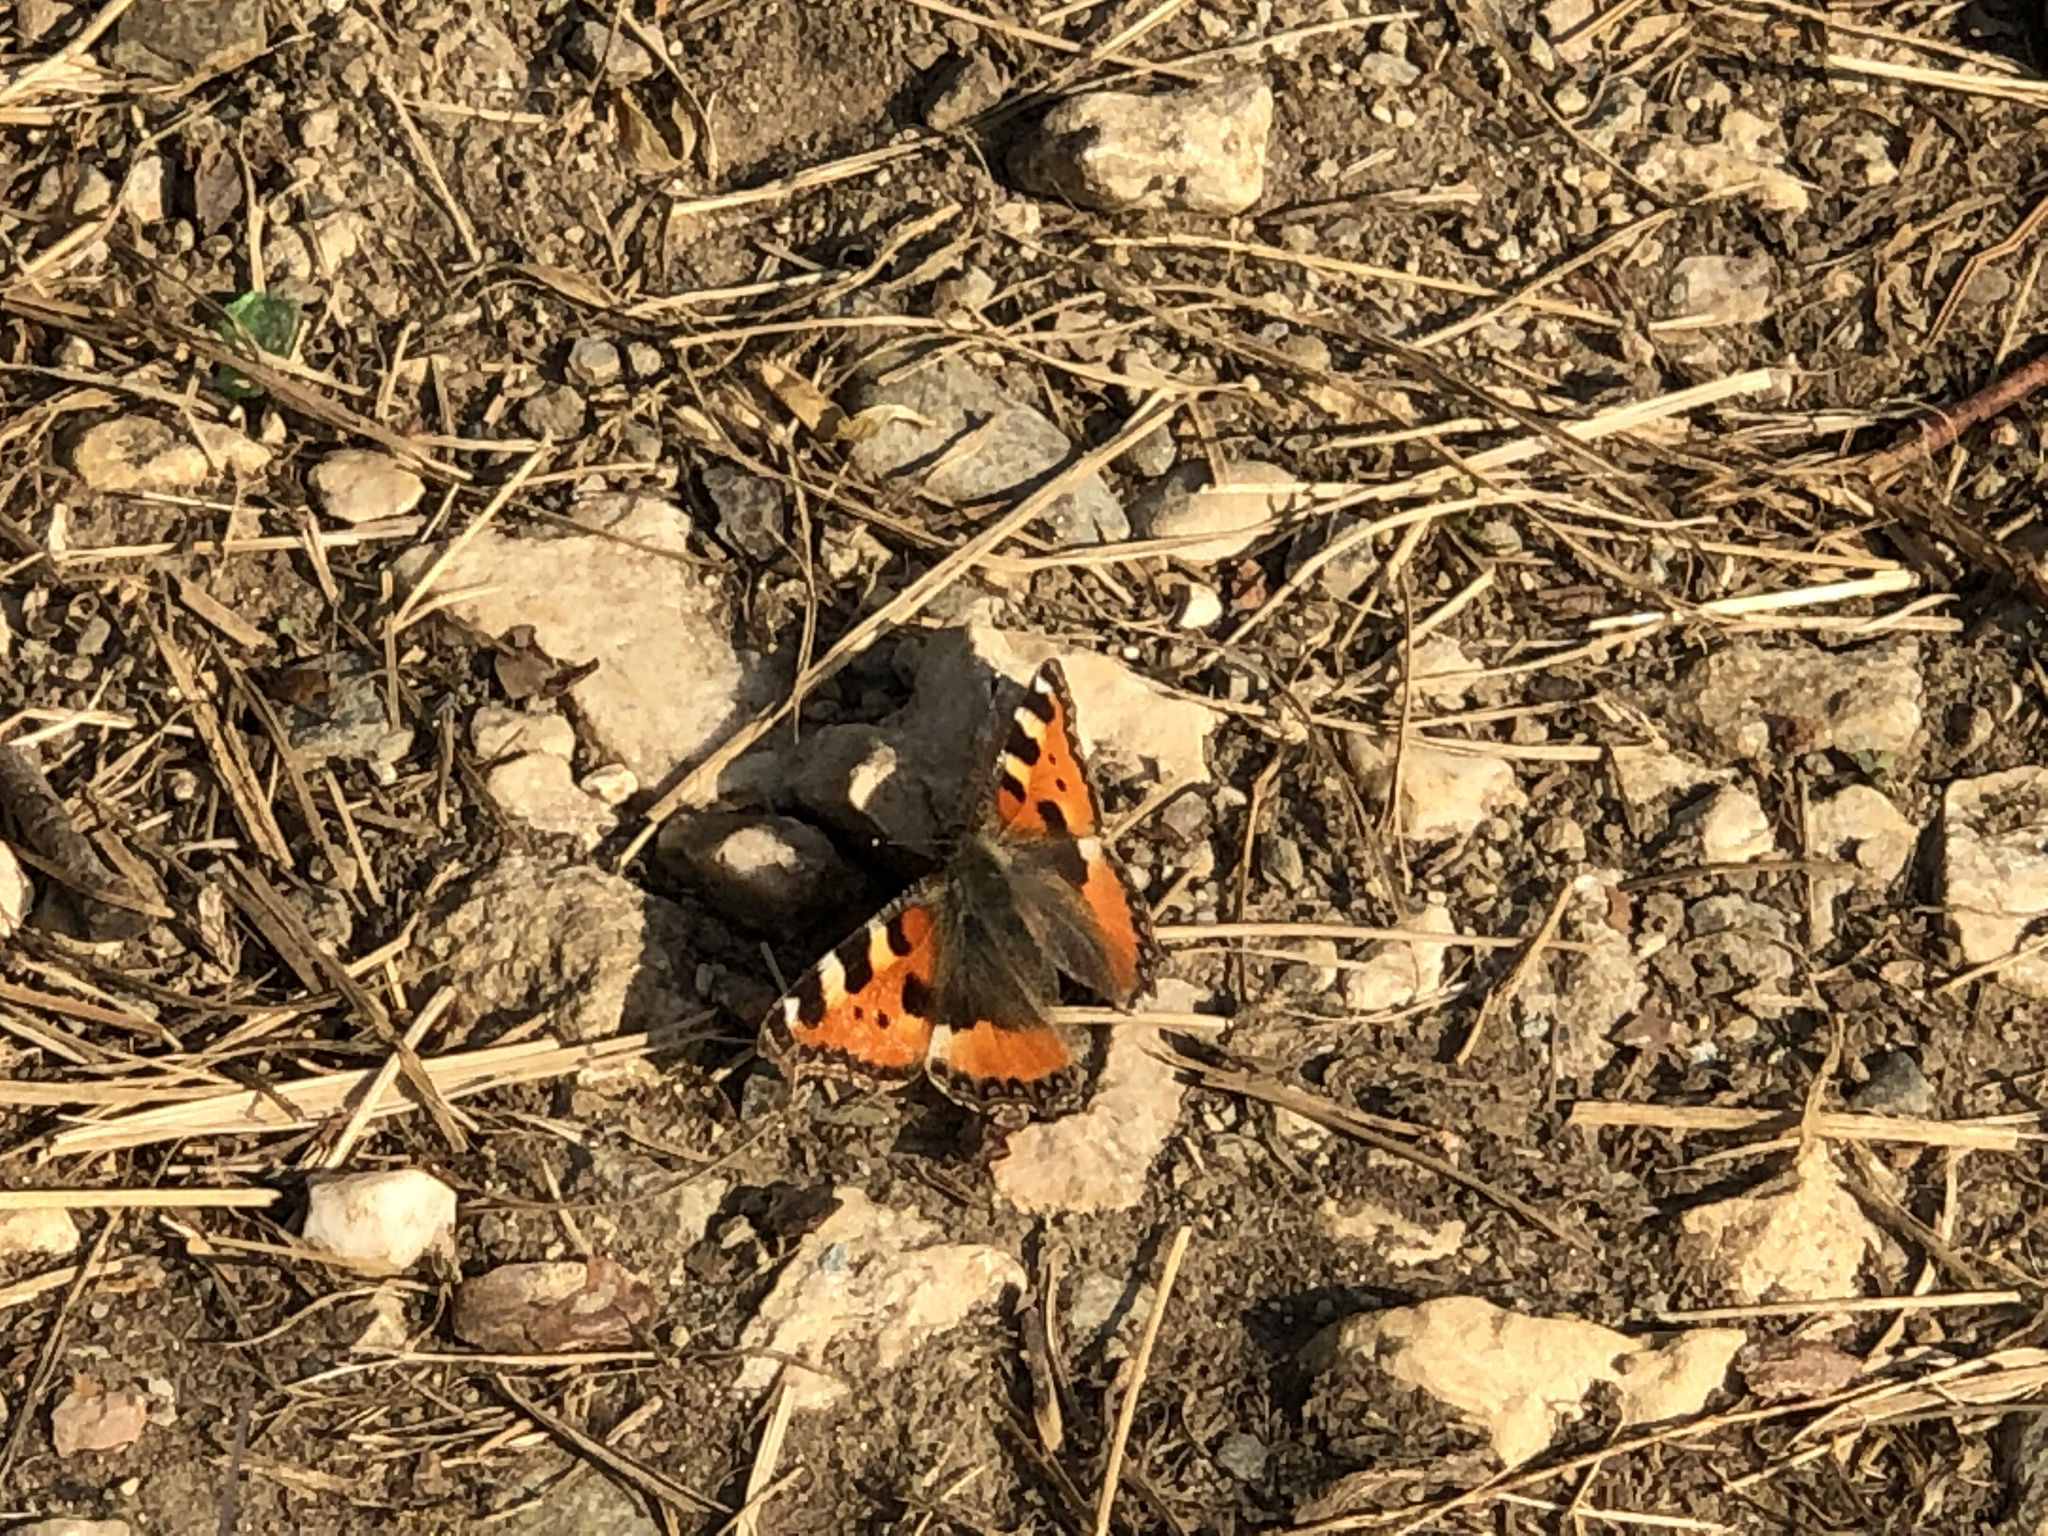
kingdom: Animalia
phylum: Arthropoda
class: Insecta
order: Lepidoptera
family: Nymphalidae
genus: Aglais
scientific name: Aglais urticae
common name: Small tortoiseshell
